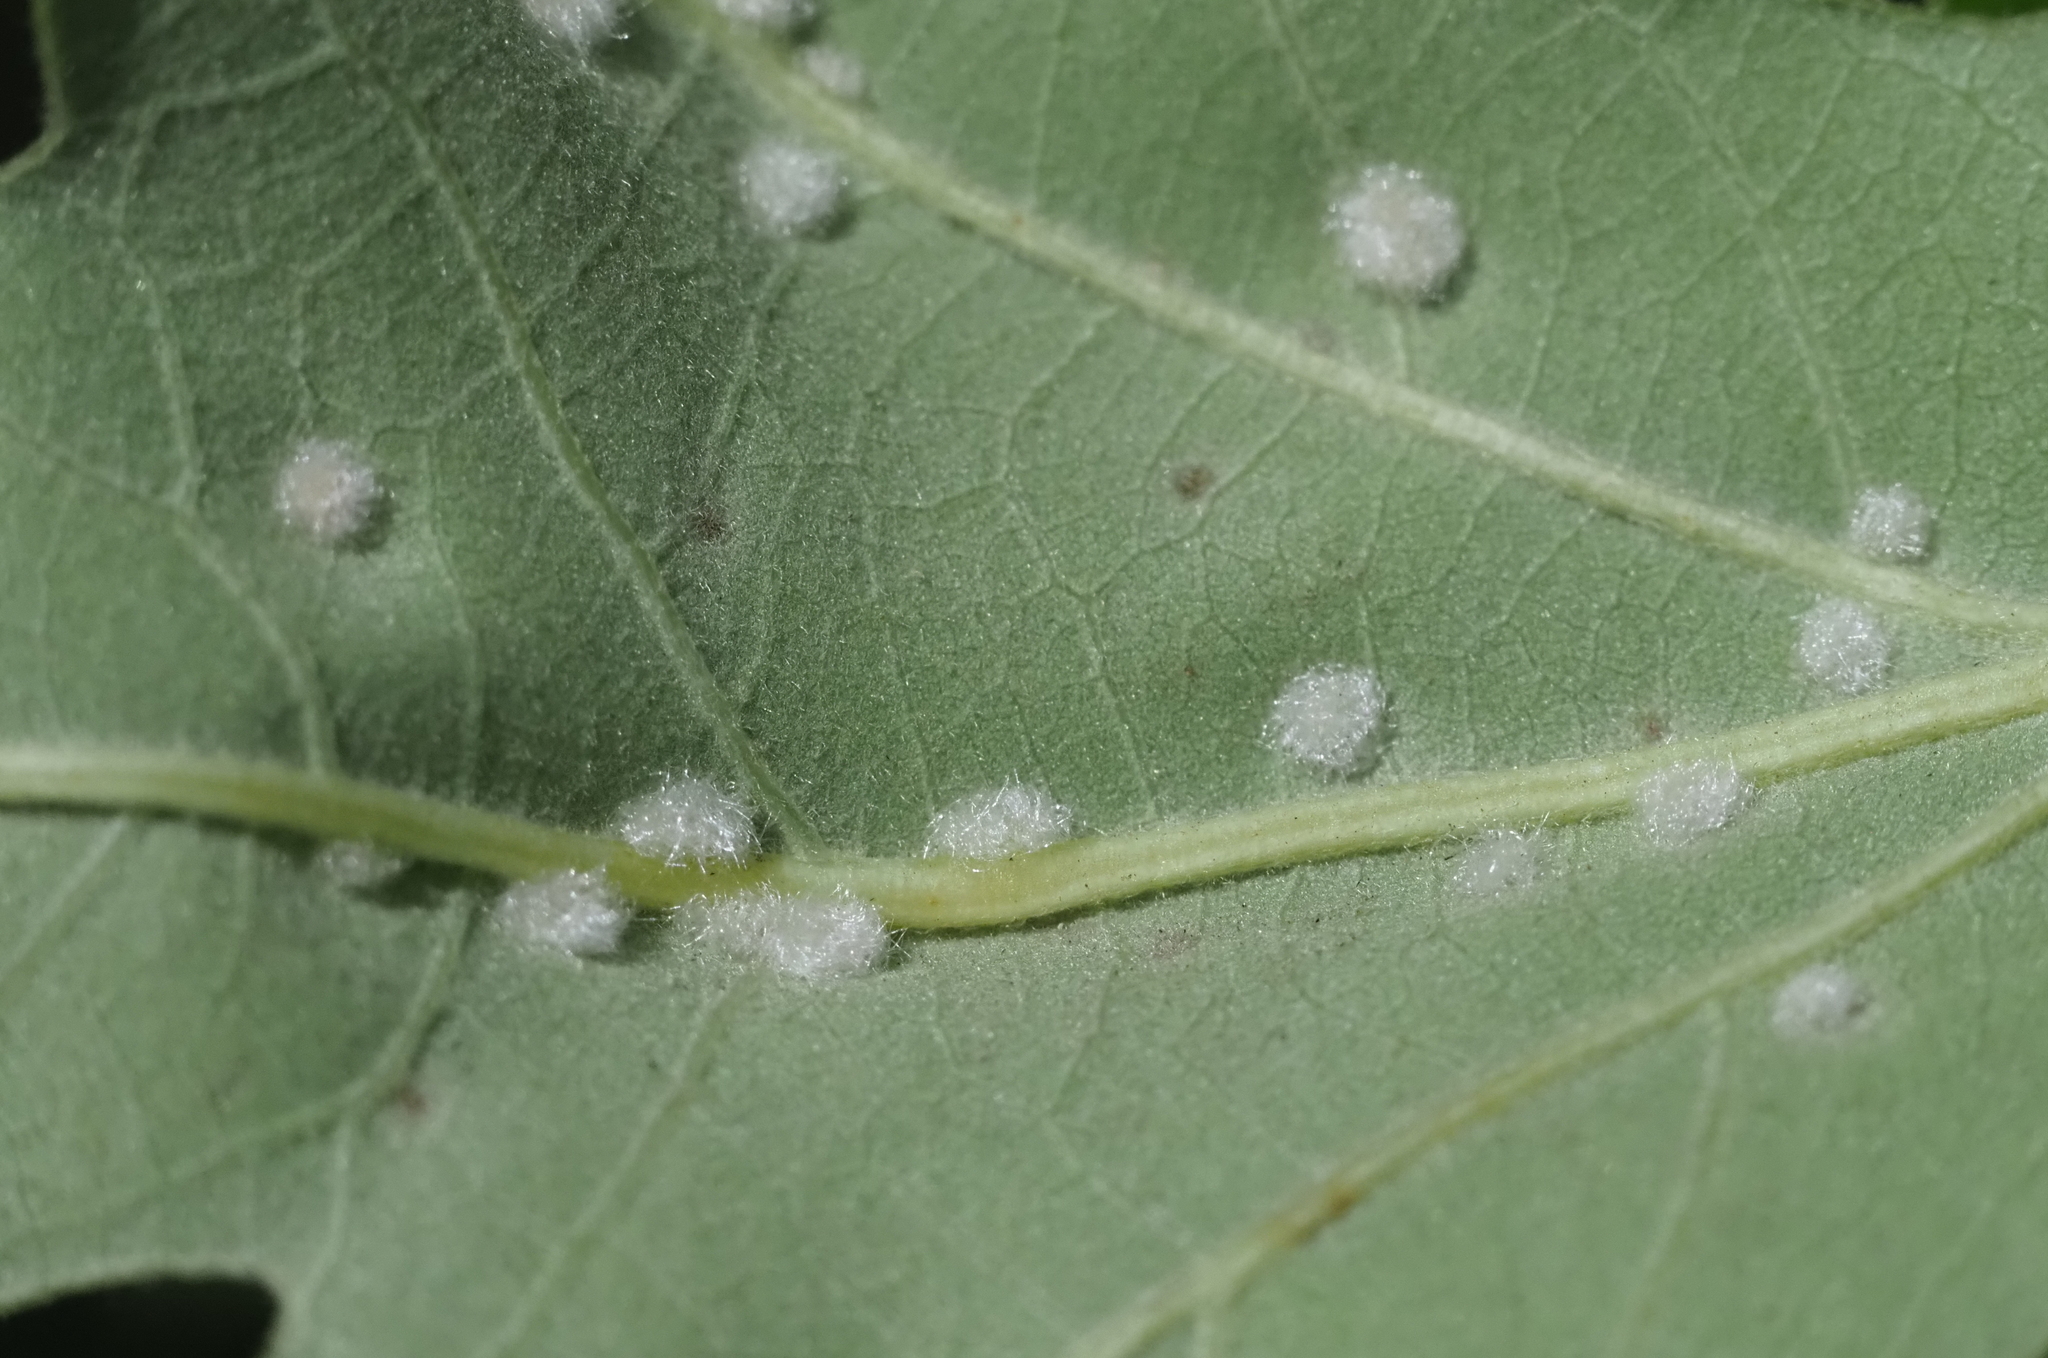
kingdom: Animalia
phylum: Arthropoda
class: Insecta
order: Hymenoptera
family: Cynipidae
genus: Neuroterus
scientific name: Neuroterus quercusverrucarum
